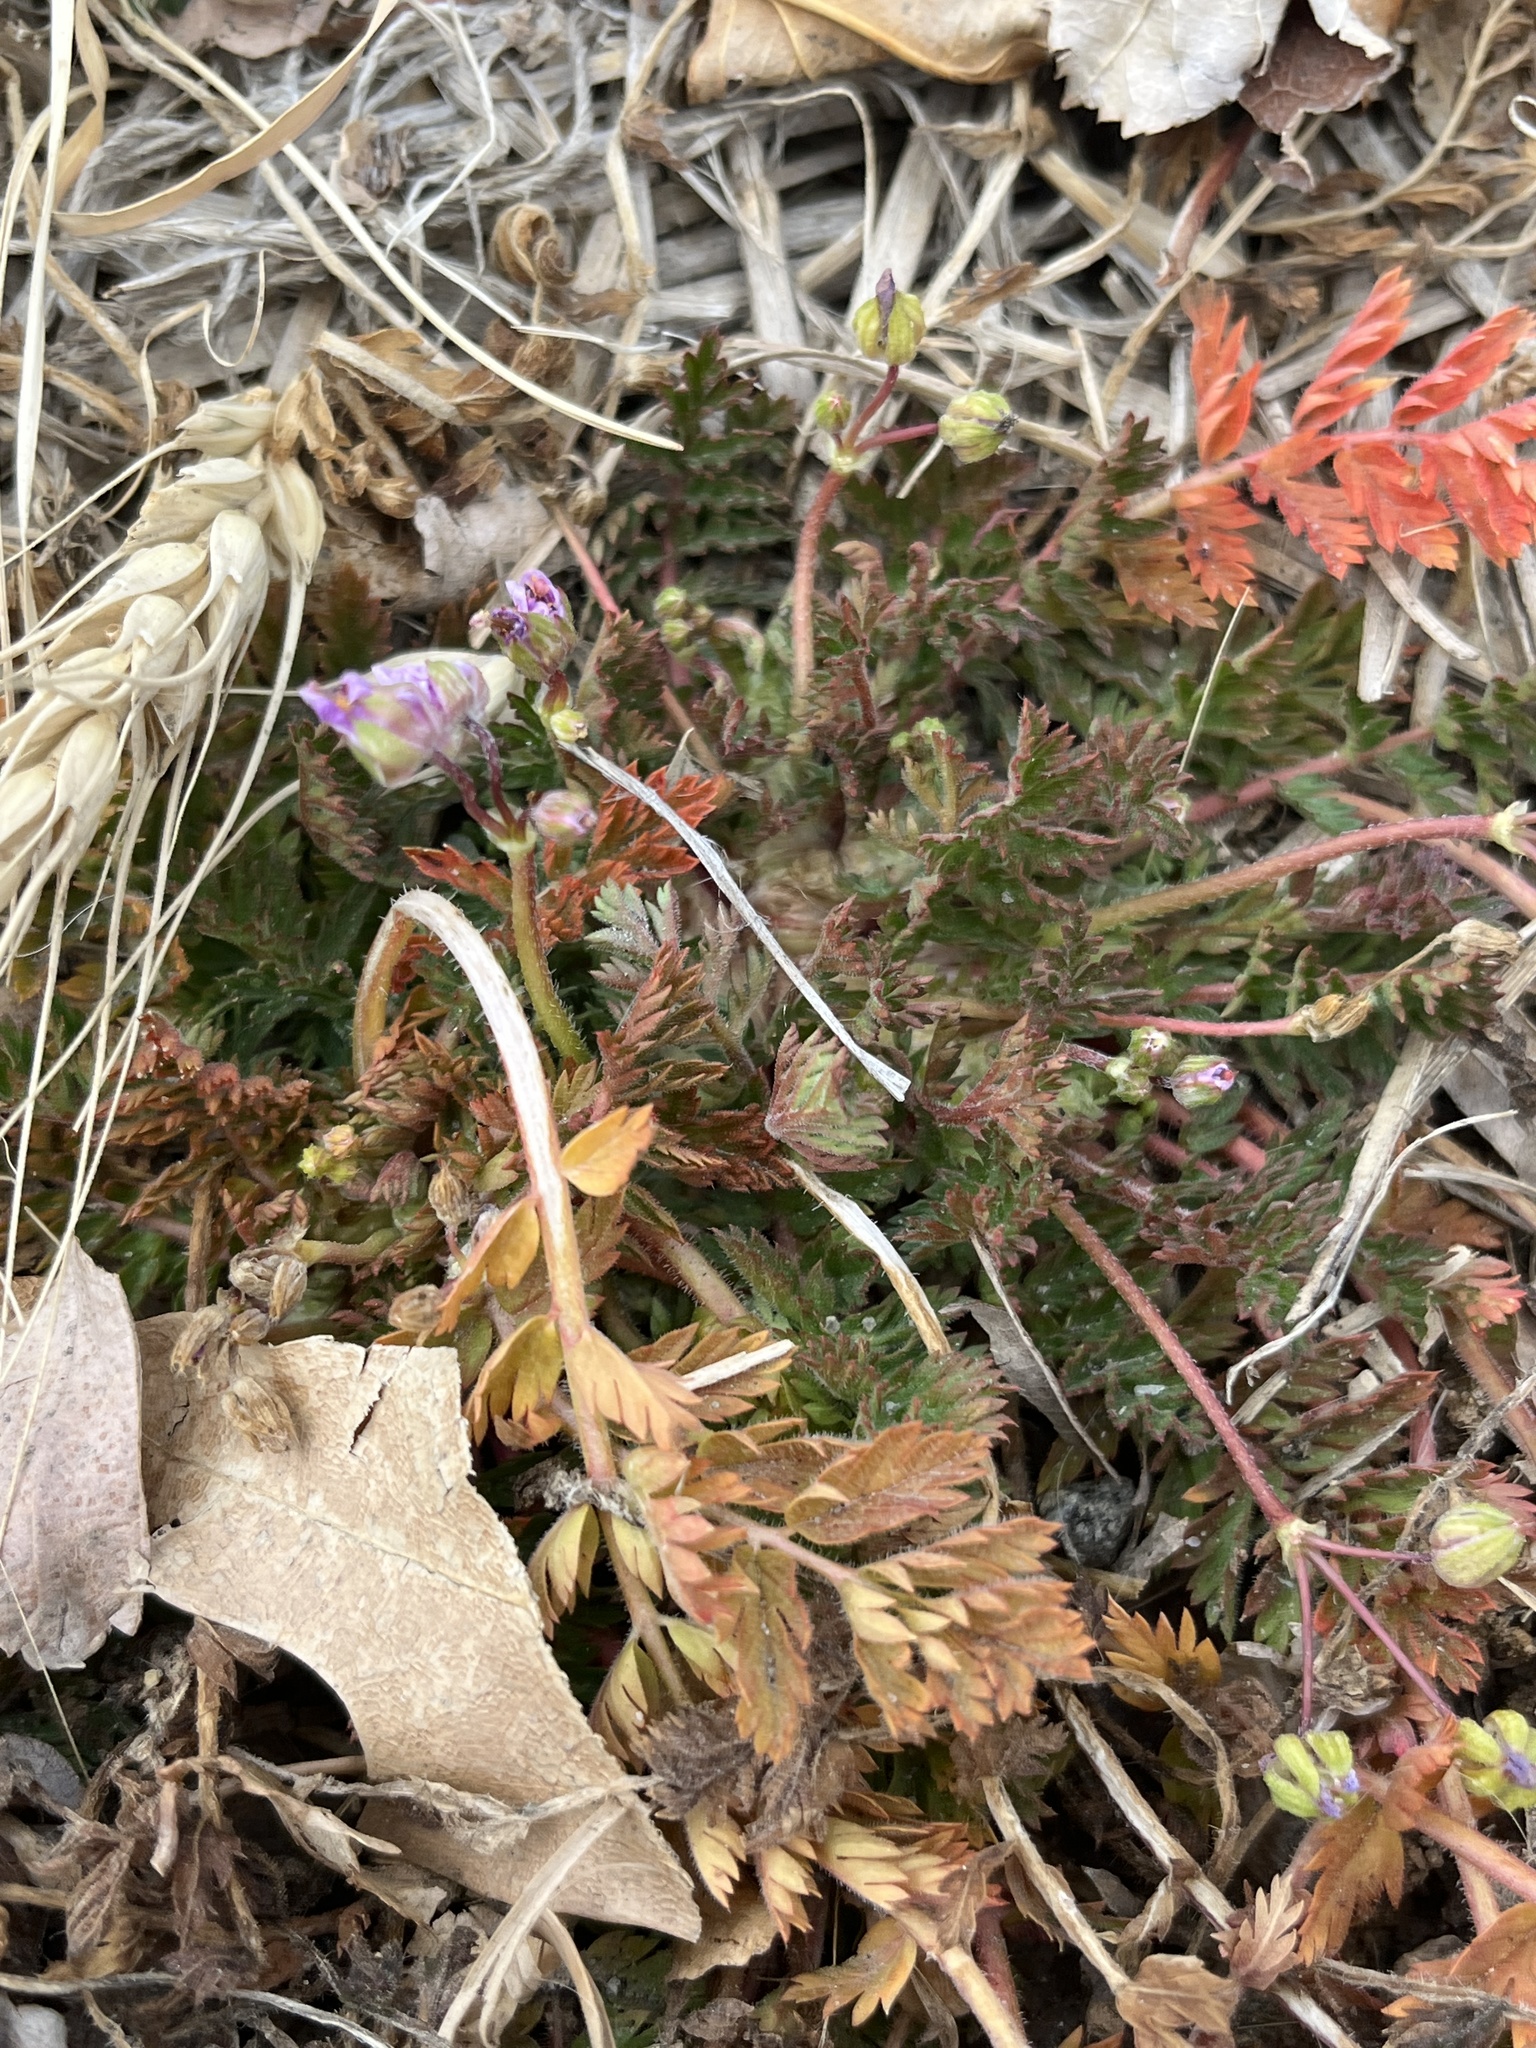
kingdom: Plantae
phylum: Tracheophyta
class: Magnoliopsida
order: Geraniales
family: Geraniaceae
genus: Erodium
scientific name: Erodium cicutarium
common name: Common stork's-bill
